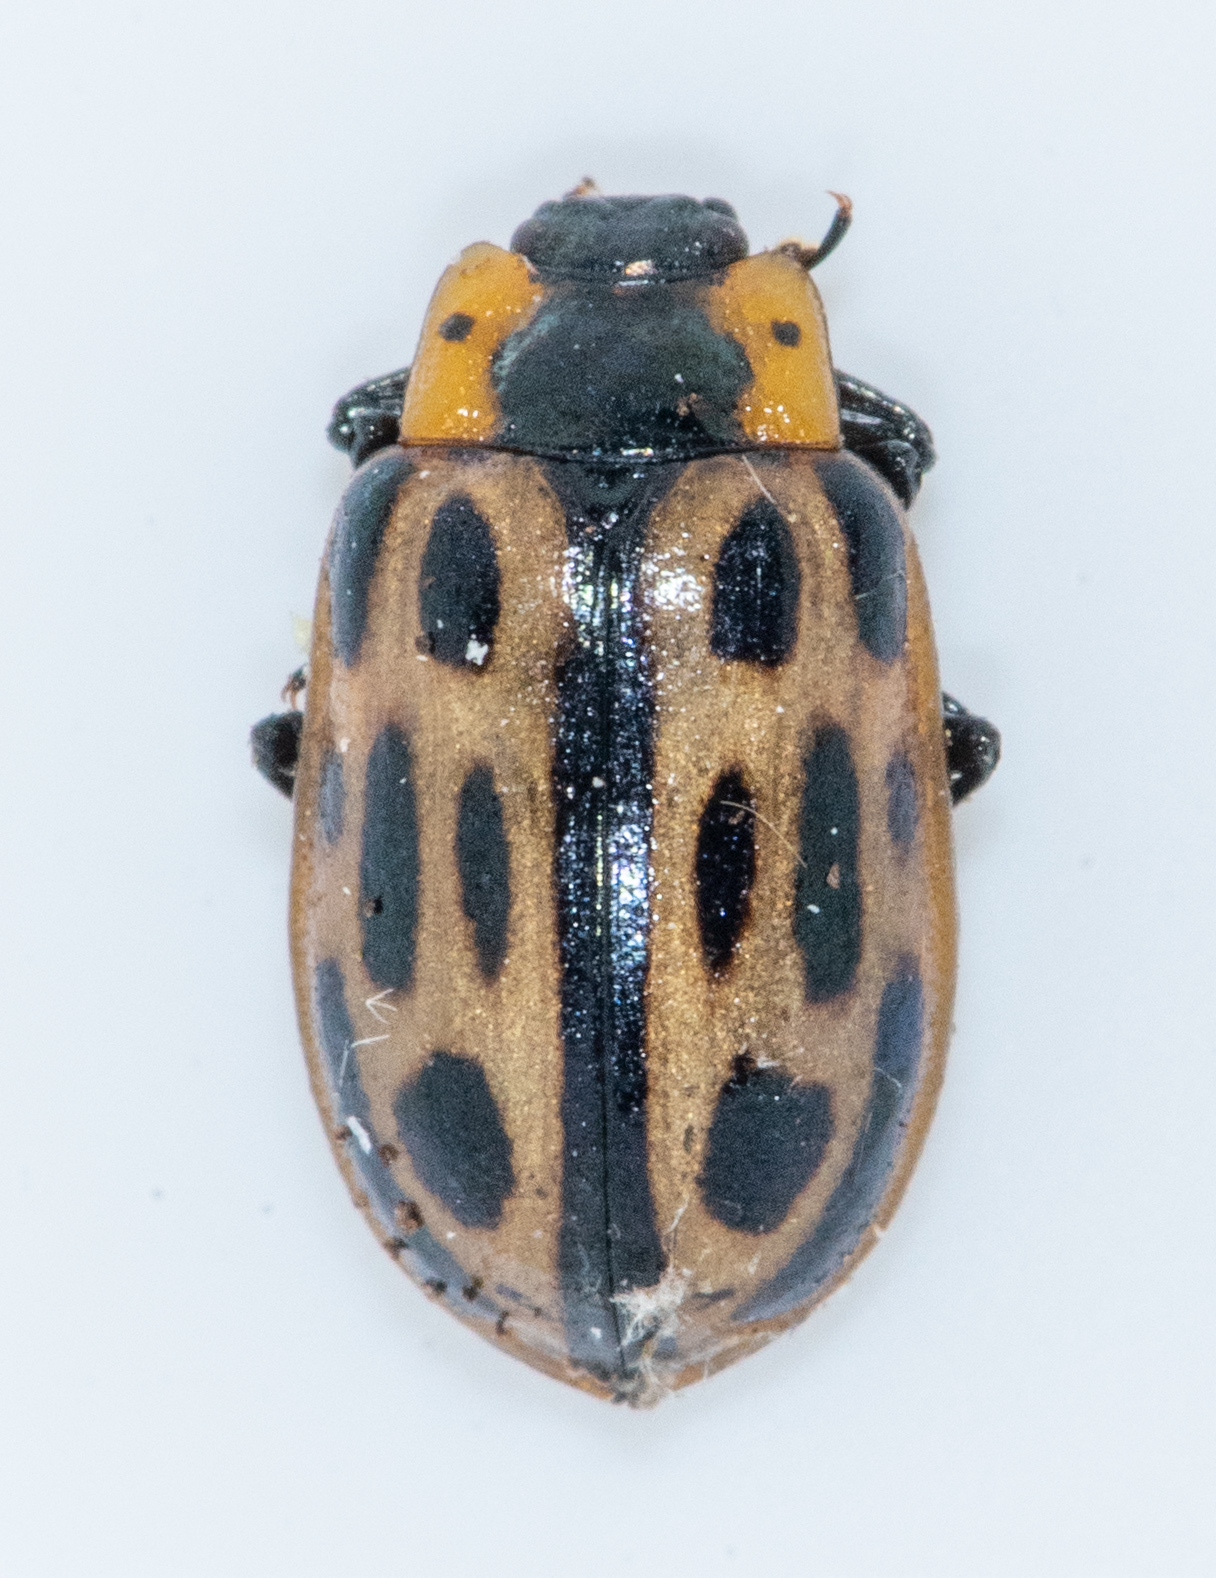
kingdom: Animalia
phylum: Arthropoda
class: Insecta
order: Coleoptera
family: Chrysomelidae
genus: Chrysomela
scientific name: Chrysomela confluens
